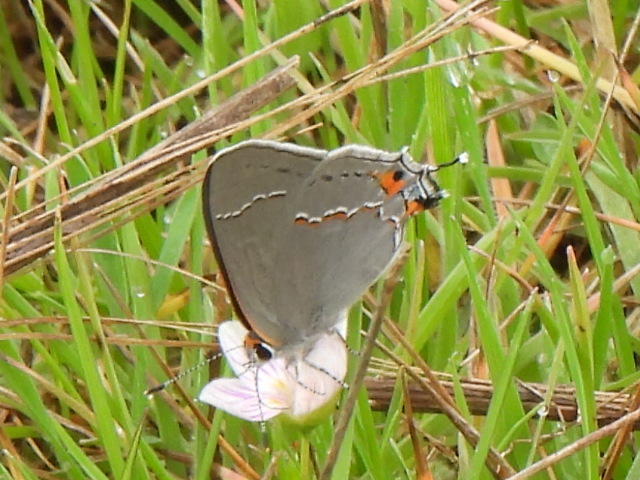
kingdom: Animalia
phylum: Arthropoda
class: Insecta
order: Lepidoptera
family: Lycaenidae
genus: Strymon
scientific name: Strymon melinus
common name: Gray hairstreak
